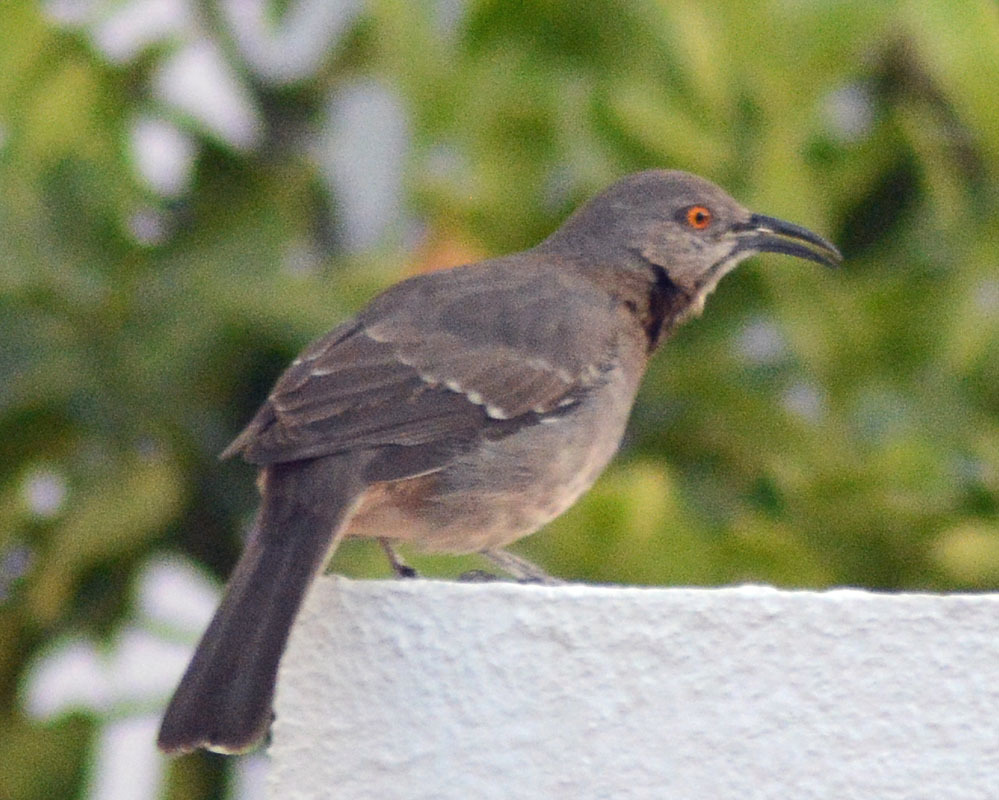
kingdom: Animalia
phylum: Chordata
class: Aves
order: Passeriformes
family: Mimidae
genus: Toxostoma
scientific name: Toxostoma curvirostre
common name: Curve-billed thrasher
